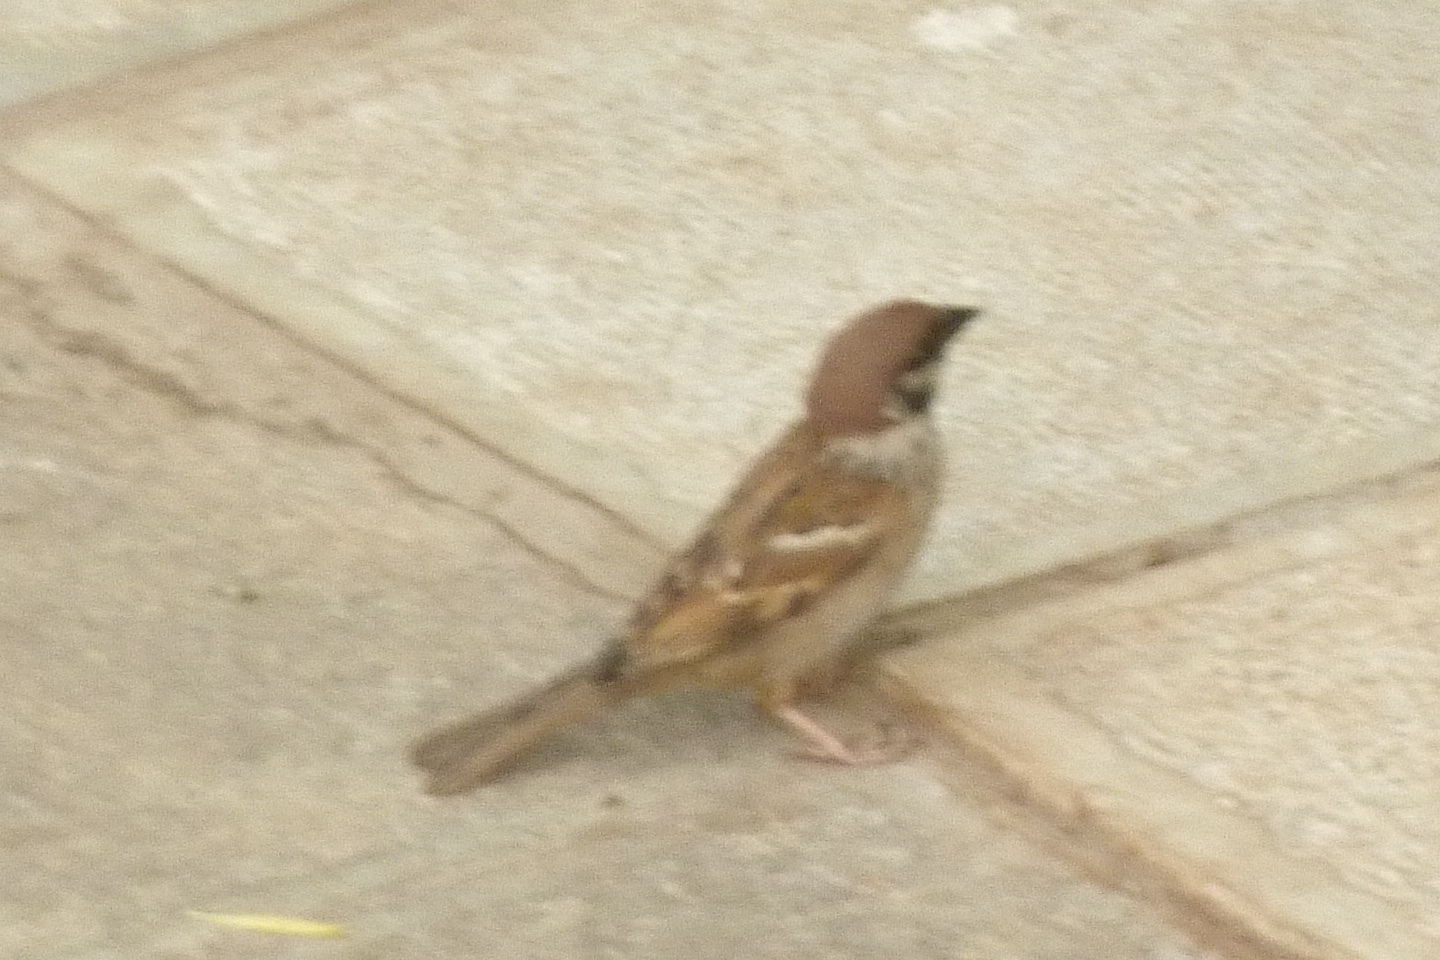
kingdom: Animalia
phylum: Chordata
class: Aves
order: Passeriformes
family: Passeridae
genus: Passer
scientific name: Passer montanus
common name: Eurasian tree sparrow
